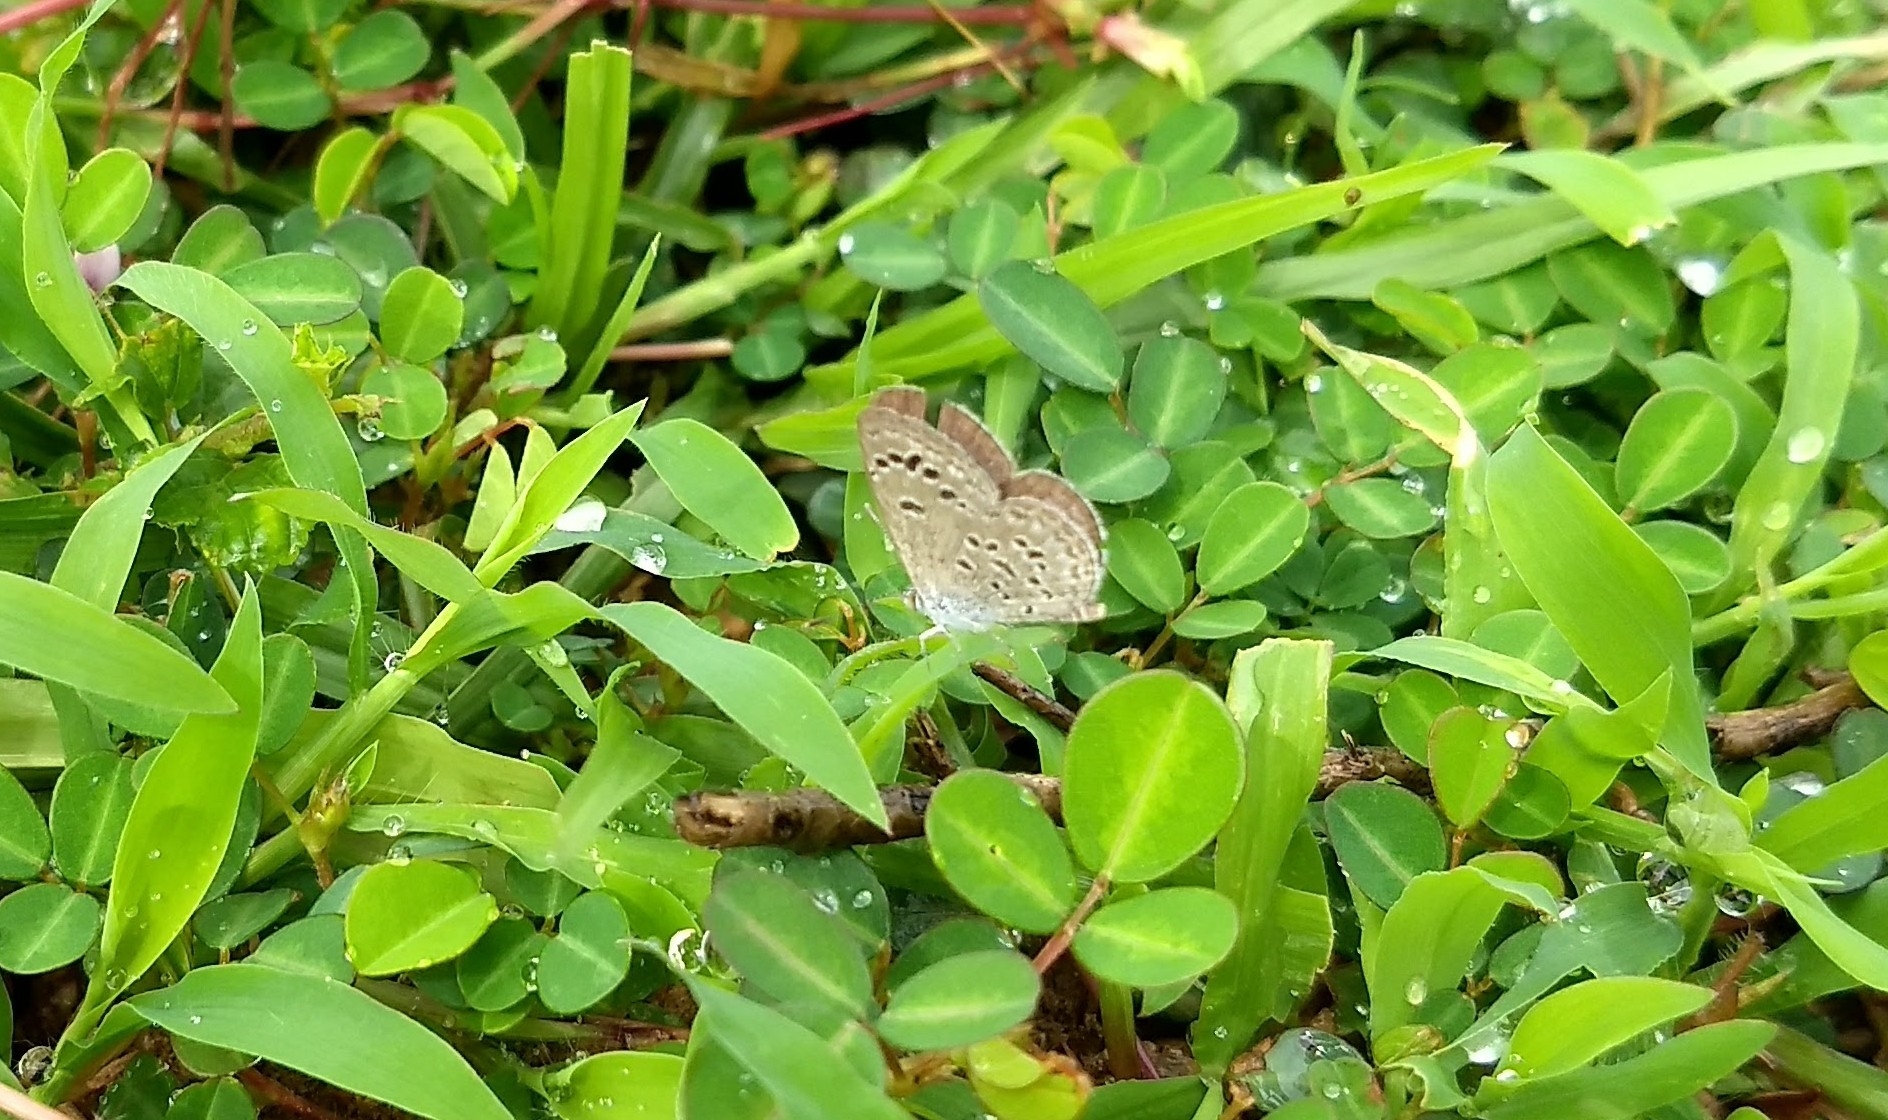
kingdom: Animalia
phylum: Arthropoda
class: Insecta
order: Lepidoptera
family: Lycaenidae
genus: Zizina
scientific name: Zizina otis
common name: Lesser grass blue
